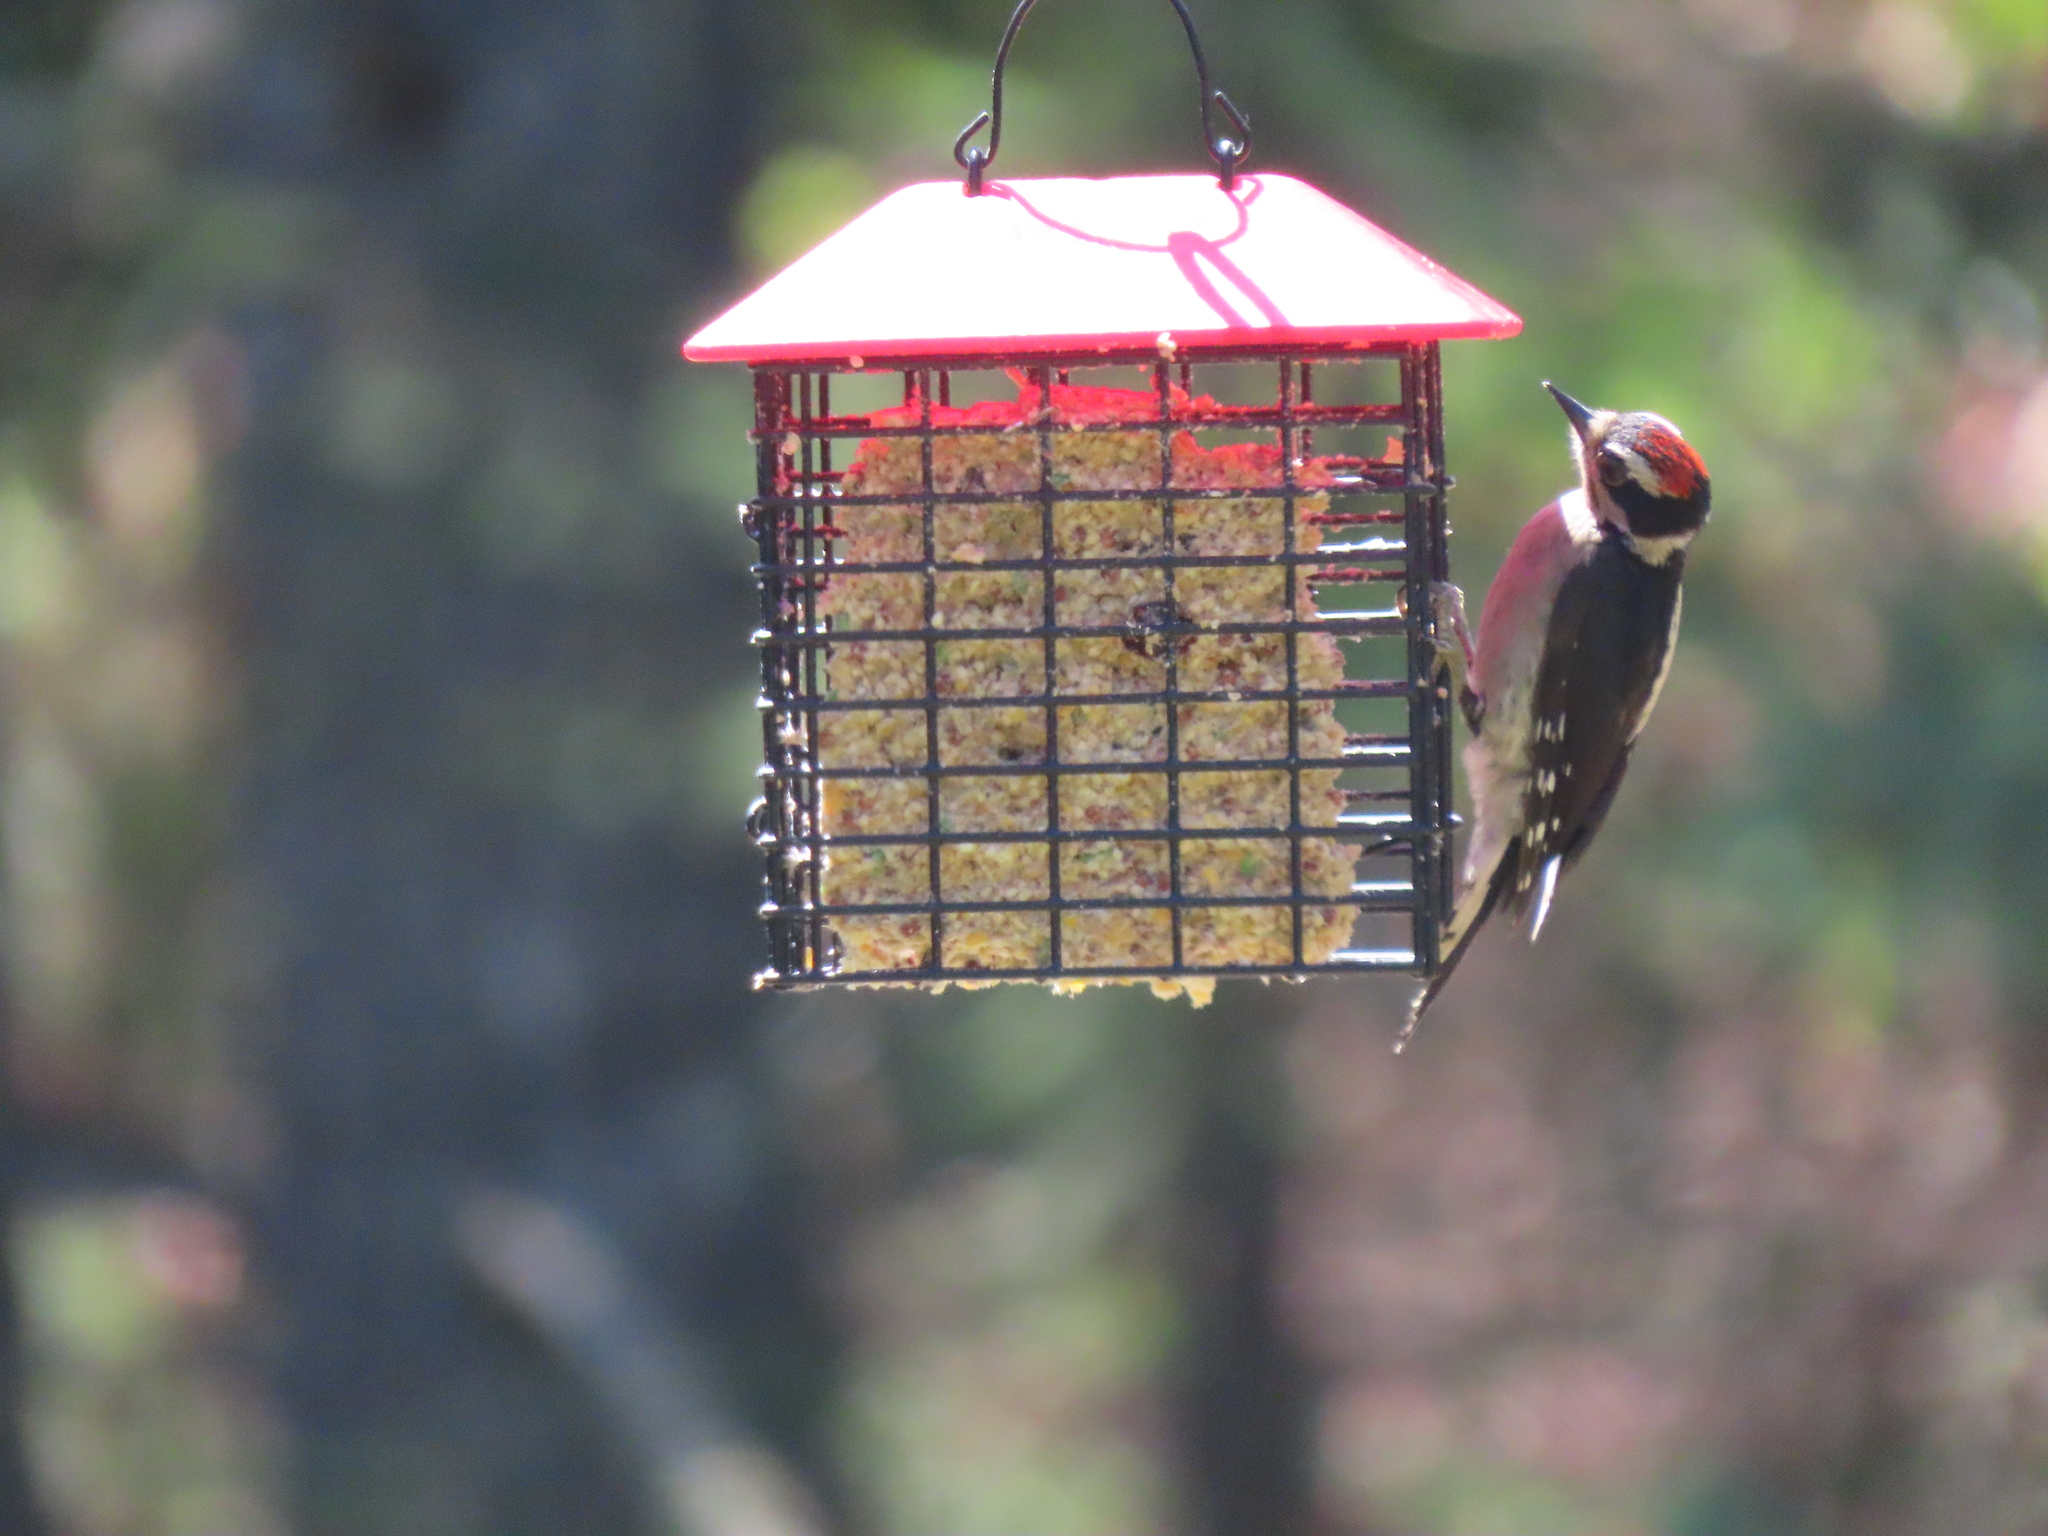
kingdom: Animalia
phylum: Chordata
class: Aves
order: Piciformes
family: Picidae
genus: Dryobates
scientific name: Dryobates pubescens
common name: Downy woodpecker
